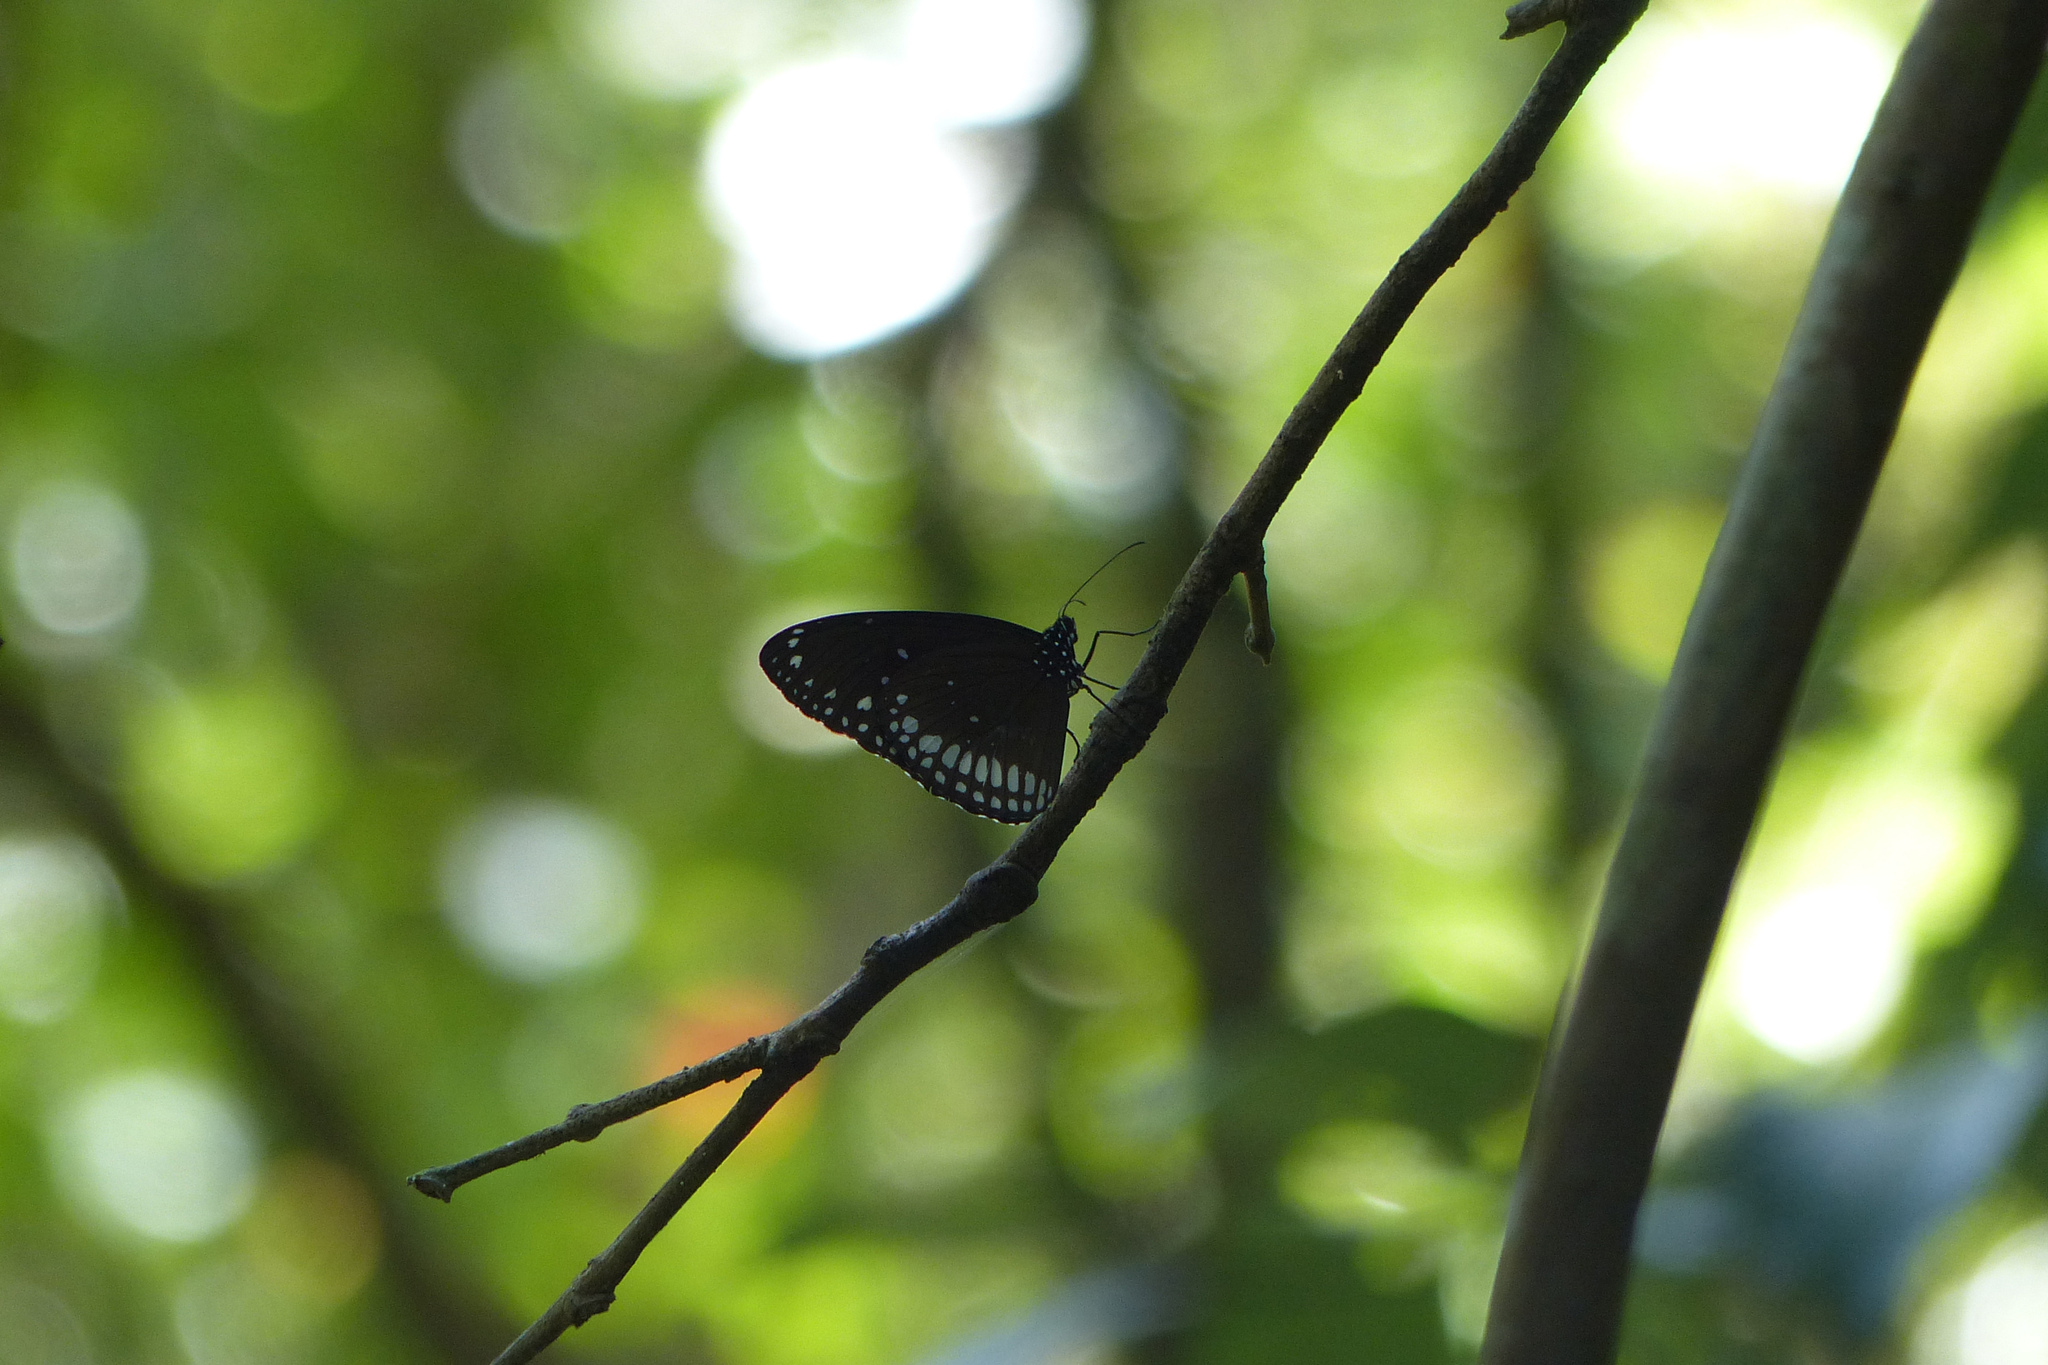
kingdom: Animalia
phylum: Arthropoda
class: Insecta
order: Lepidoptera
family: Nymphalidae
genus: Euploea
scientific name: Euploea core
